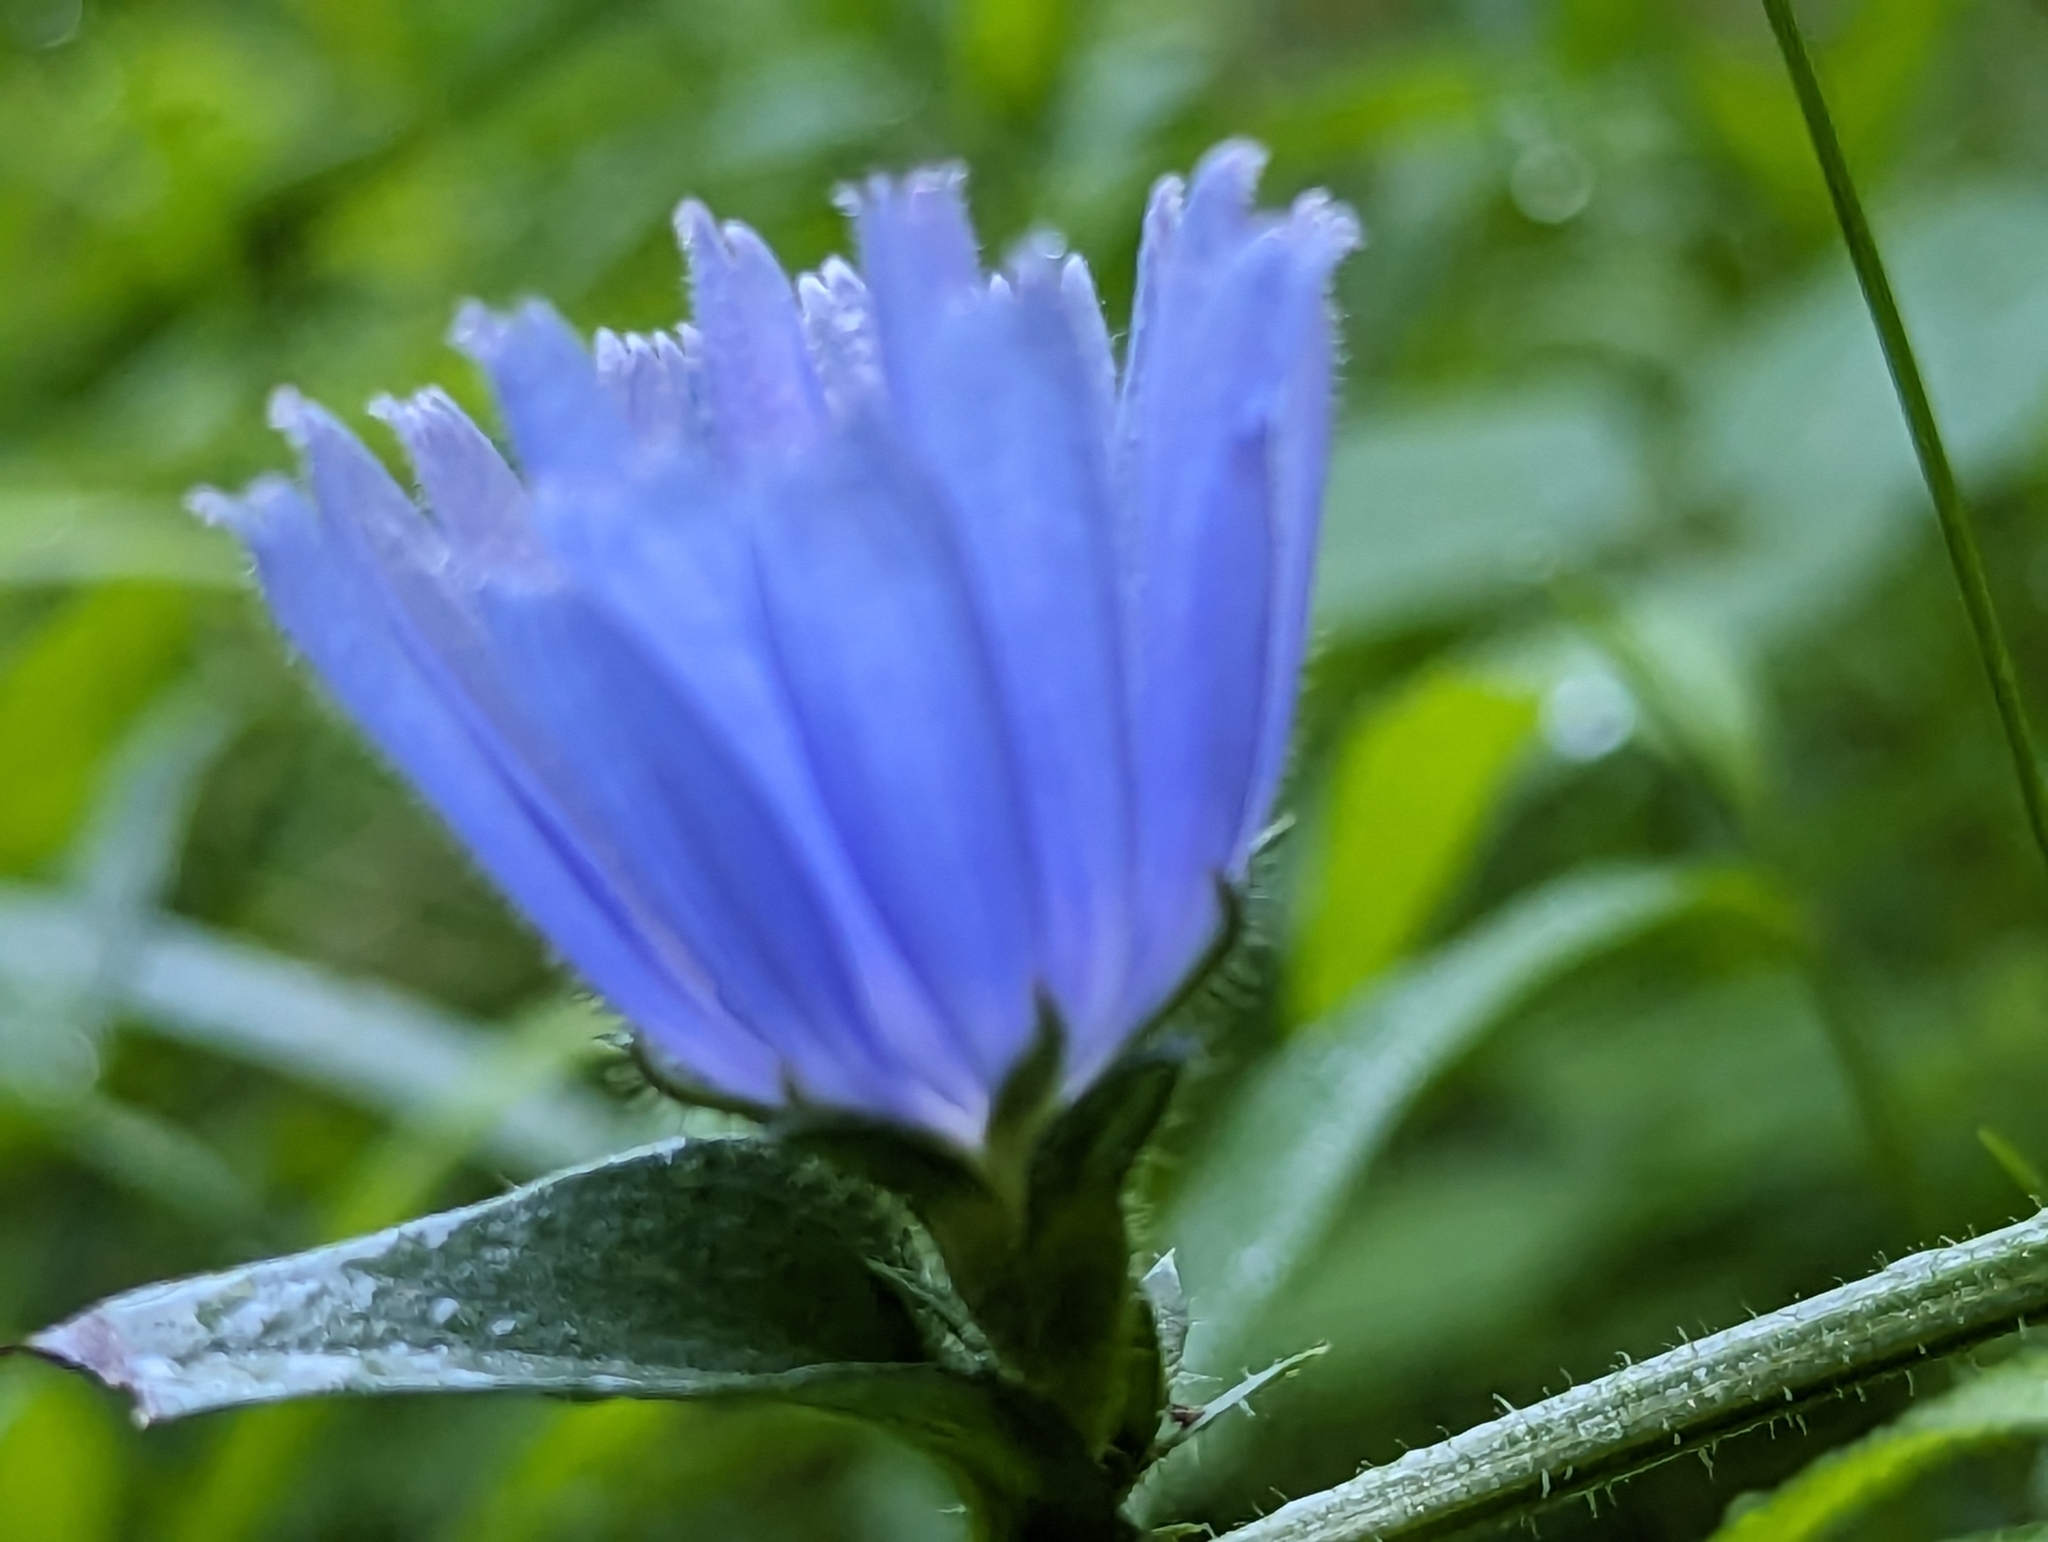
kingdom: Plantae
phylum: Tracheophyta
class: Magnoliopsida
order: Asterales
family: Asteraceae
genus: Cichorium
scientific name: Cichorium intybus
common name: Chicory
